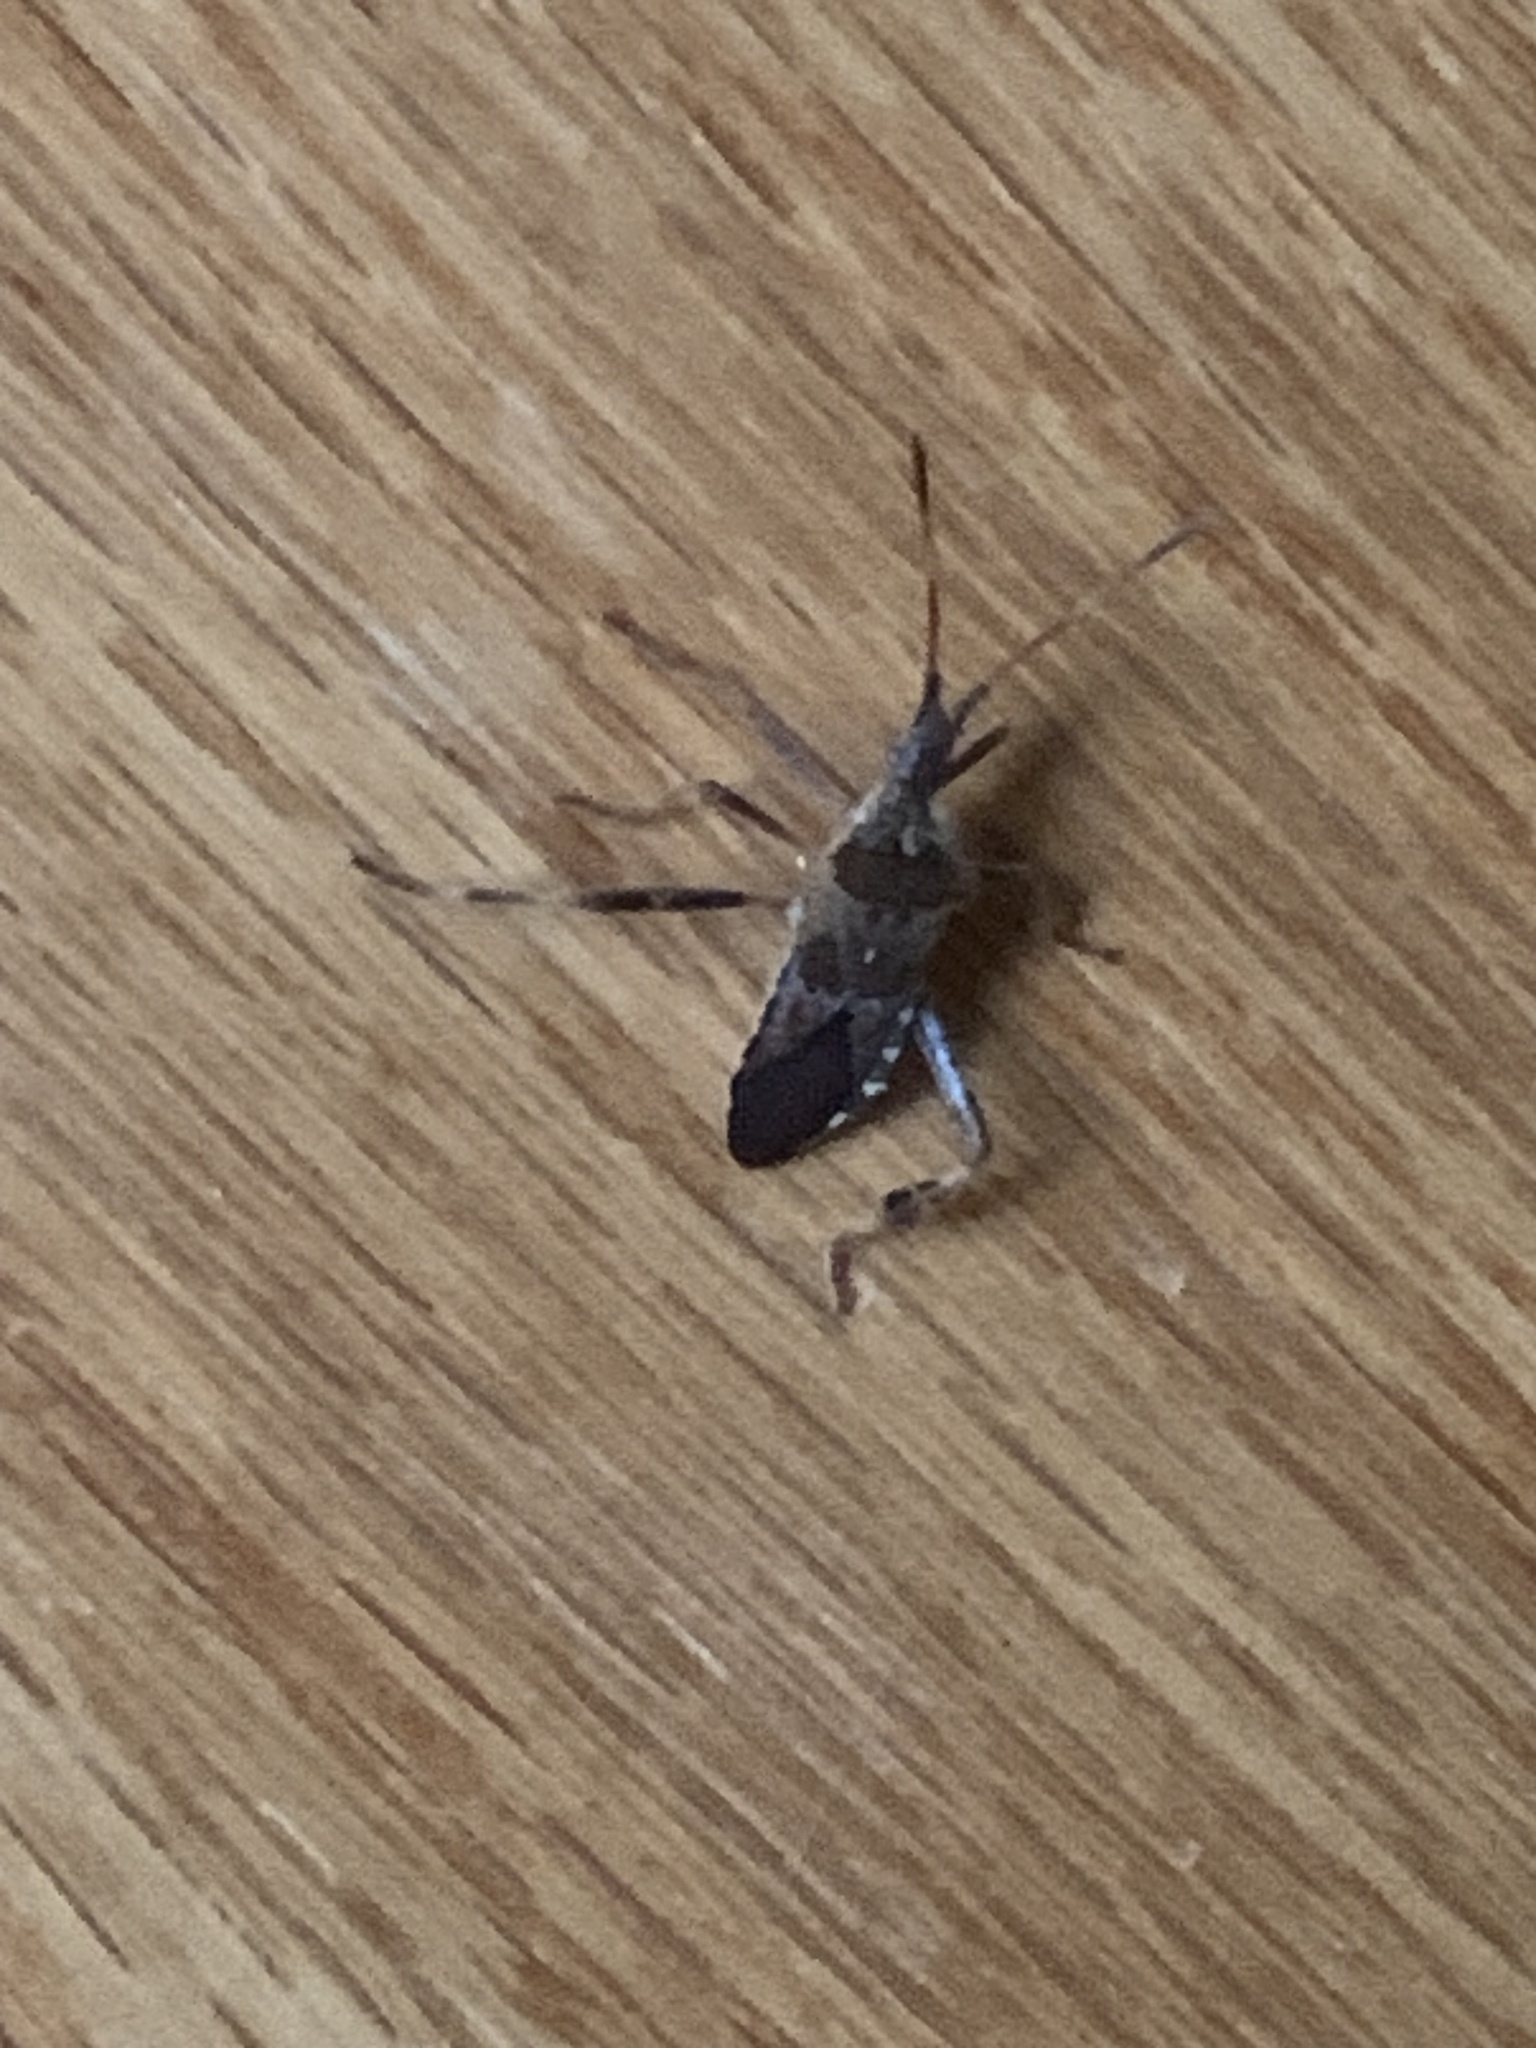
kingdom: Animalia
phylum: Arthropoda
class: Insecta
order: Hemiptera
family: Coreidae
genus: Leptoglossus
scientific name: Leptoglossus occidentalis
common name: Western conifer-seed bug
